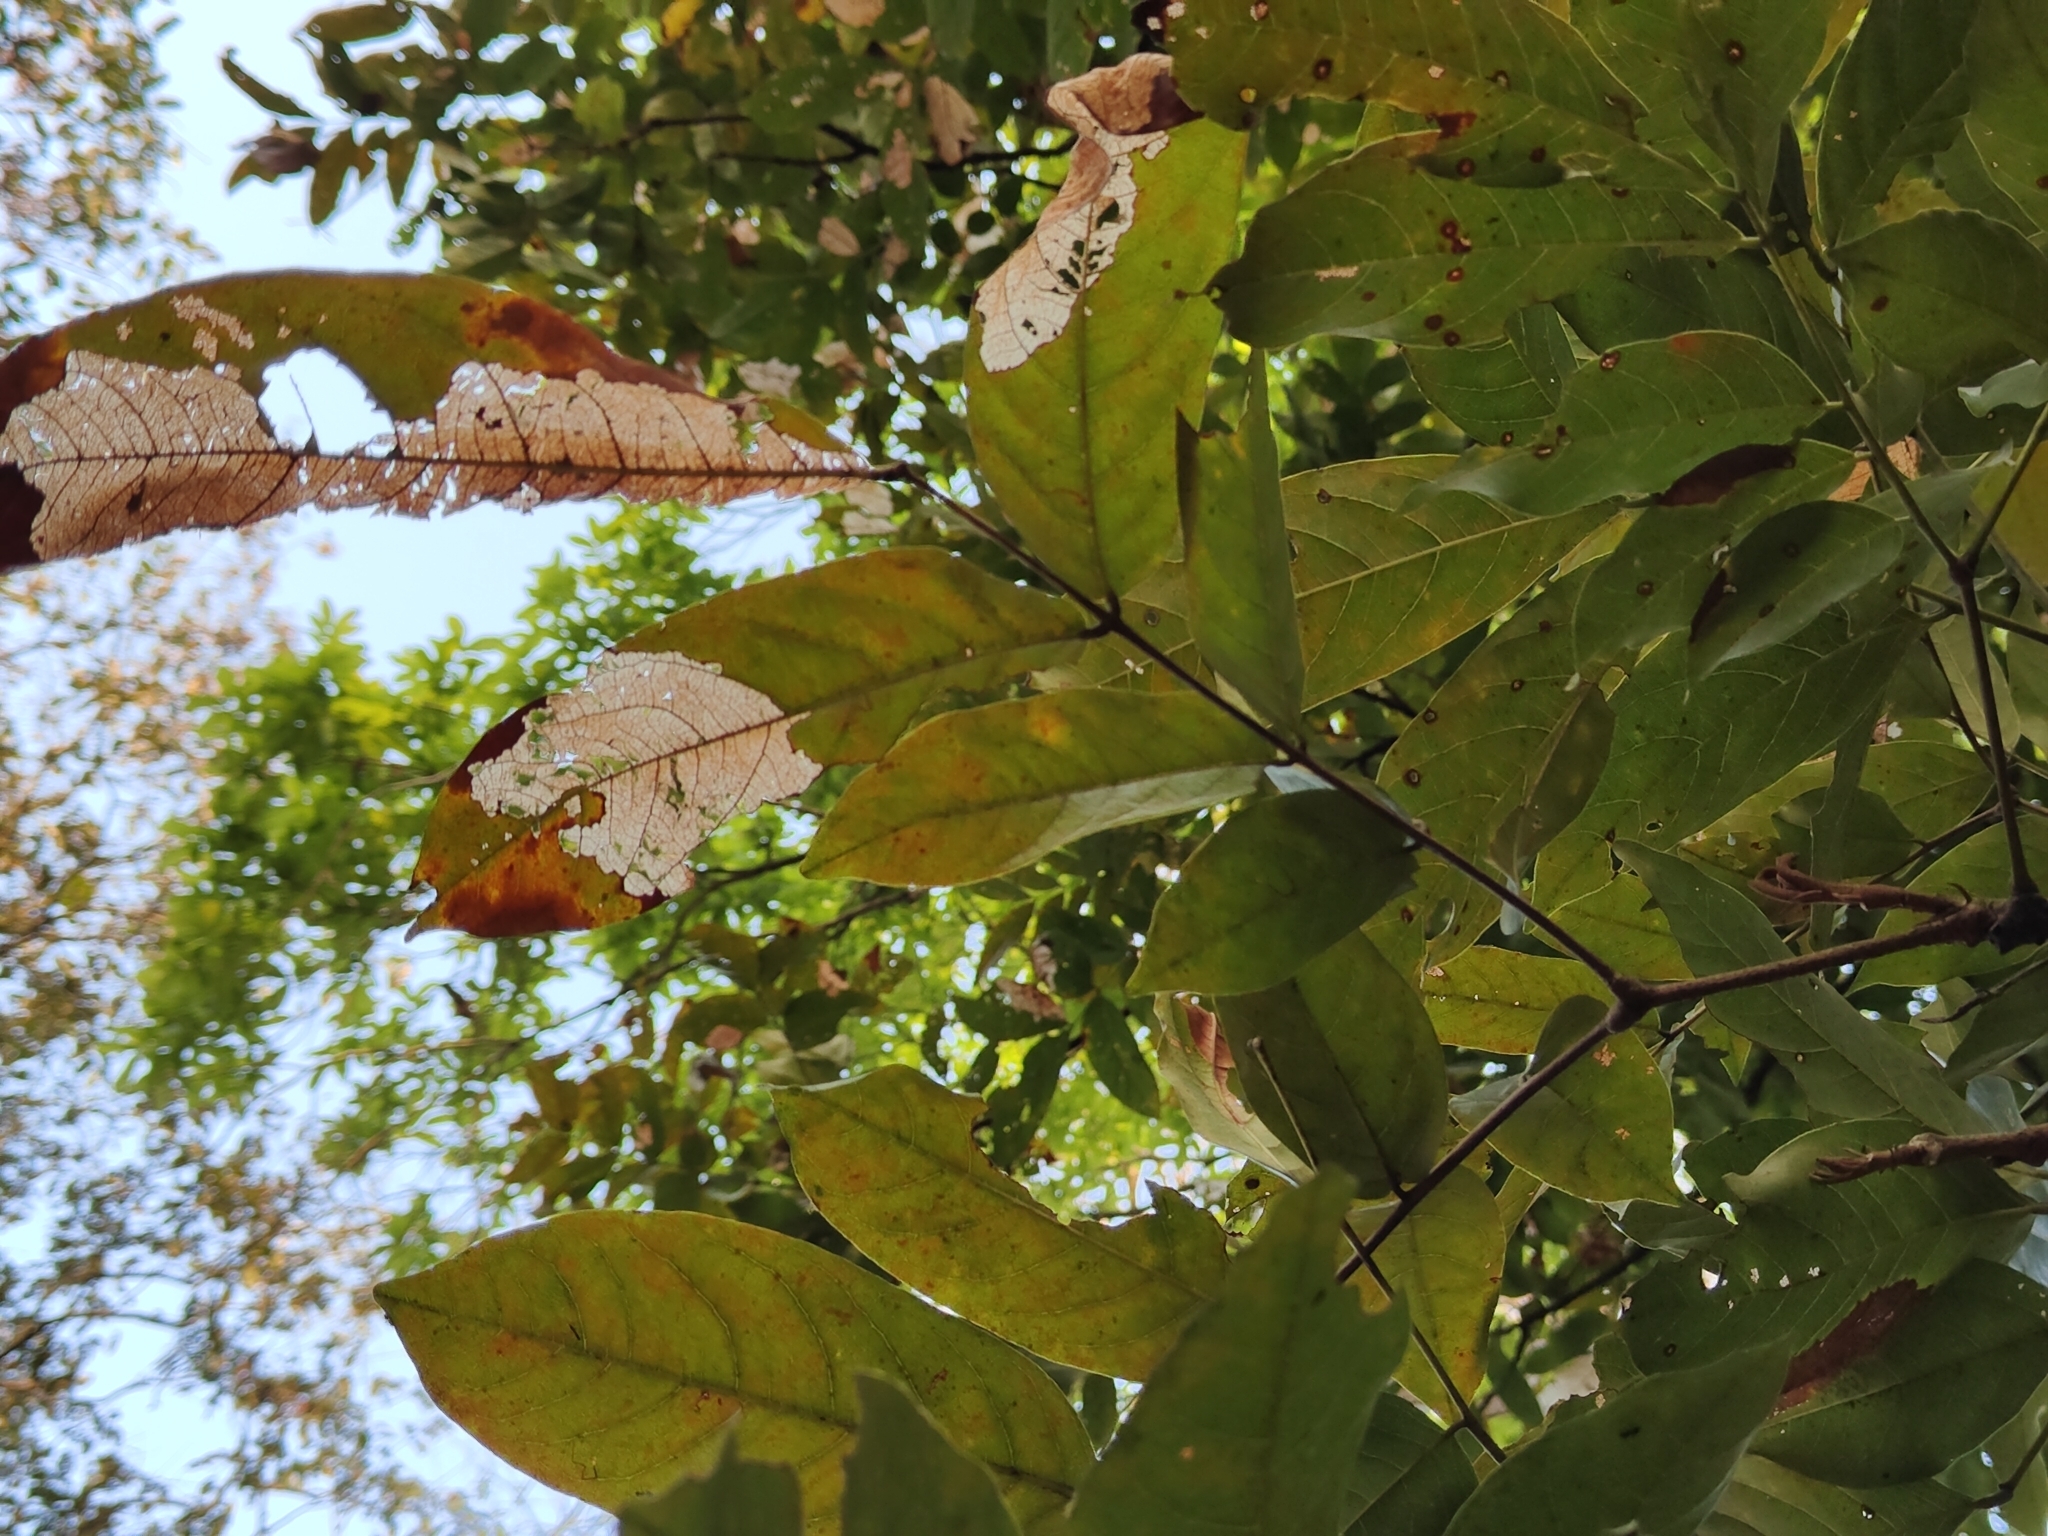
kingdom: Plantae
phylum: Tracheophyta
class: Magnoliopsida
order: Fabales
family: Fabaceae
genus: Xylia
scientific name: Xylia xylocarpa
